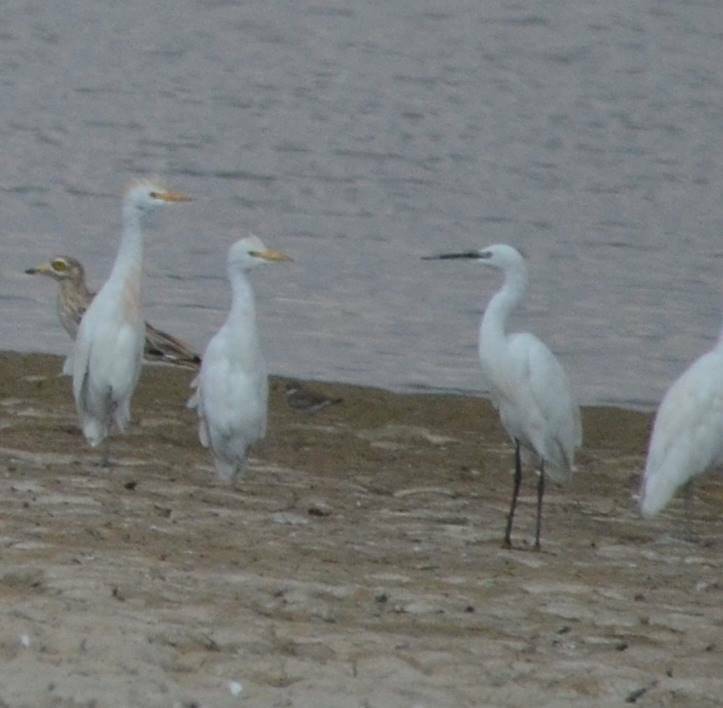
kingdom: Animalia
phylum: Chordata
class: Aves
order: Pelecaniformes
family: Ardeidae
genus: Bubulcus
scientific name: Bubulcus ibis
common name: Cattle egret
